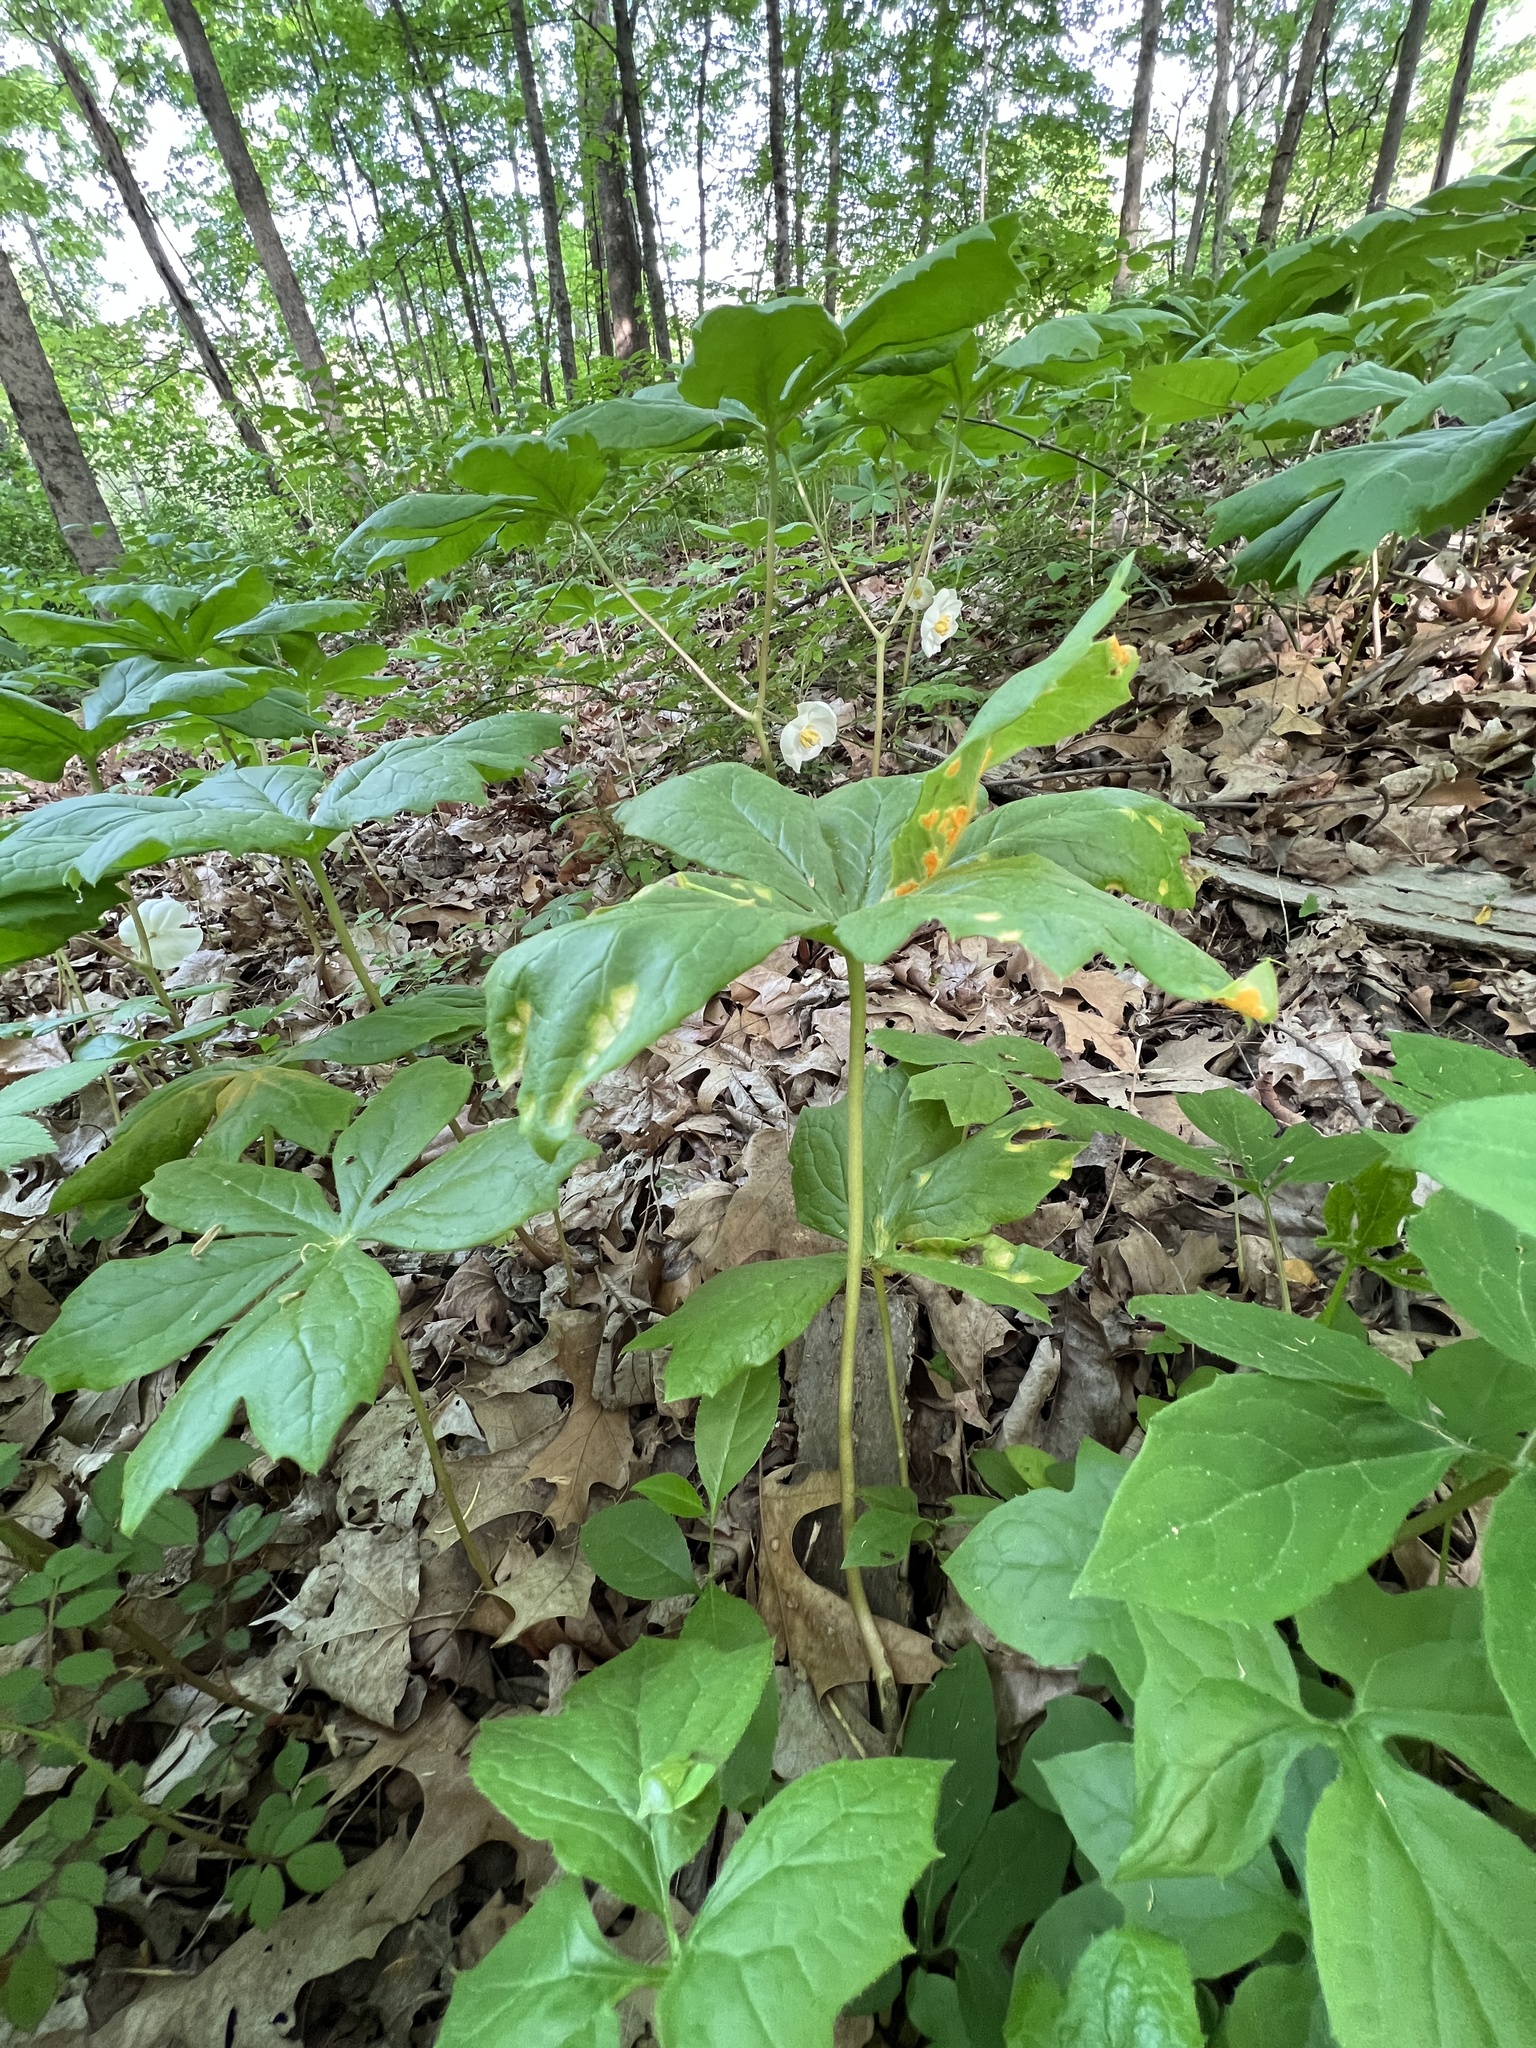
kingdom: Fungi
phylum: Basidiomycota
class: Pucciniomycetes
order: Pucciniales
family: Pucciniaceae
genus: Puccinia
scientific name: Puccinia podophylli
